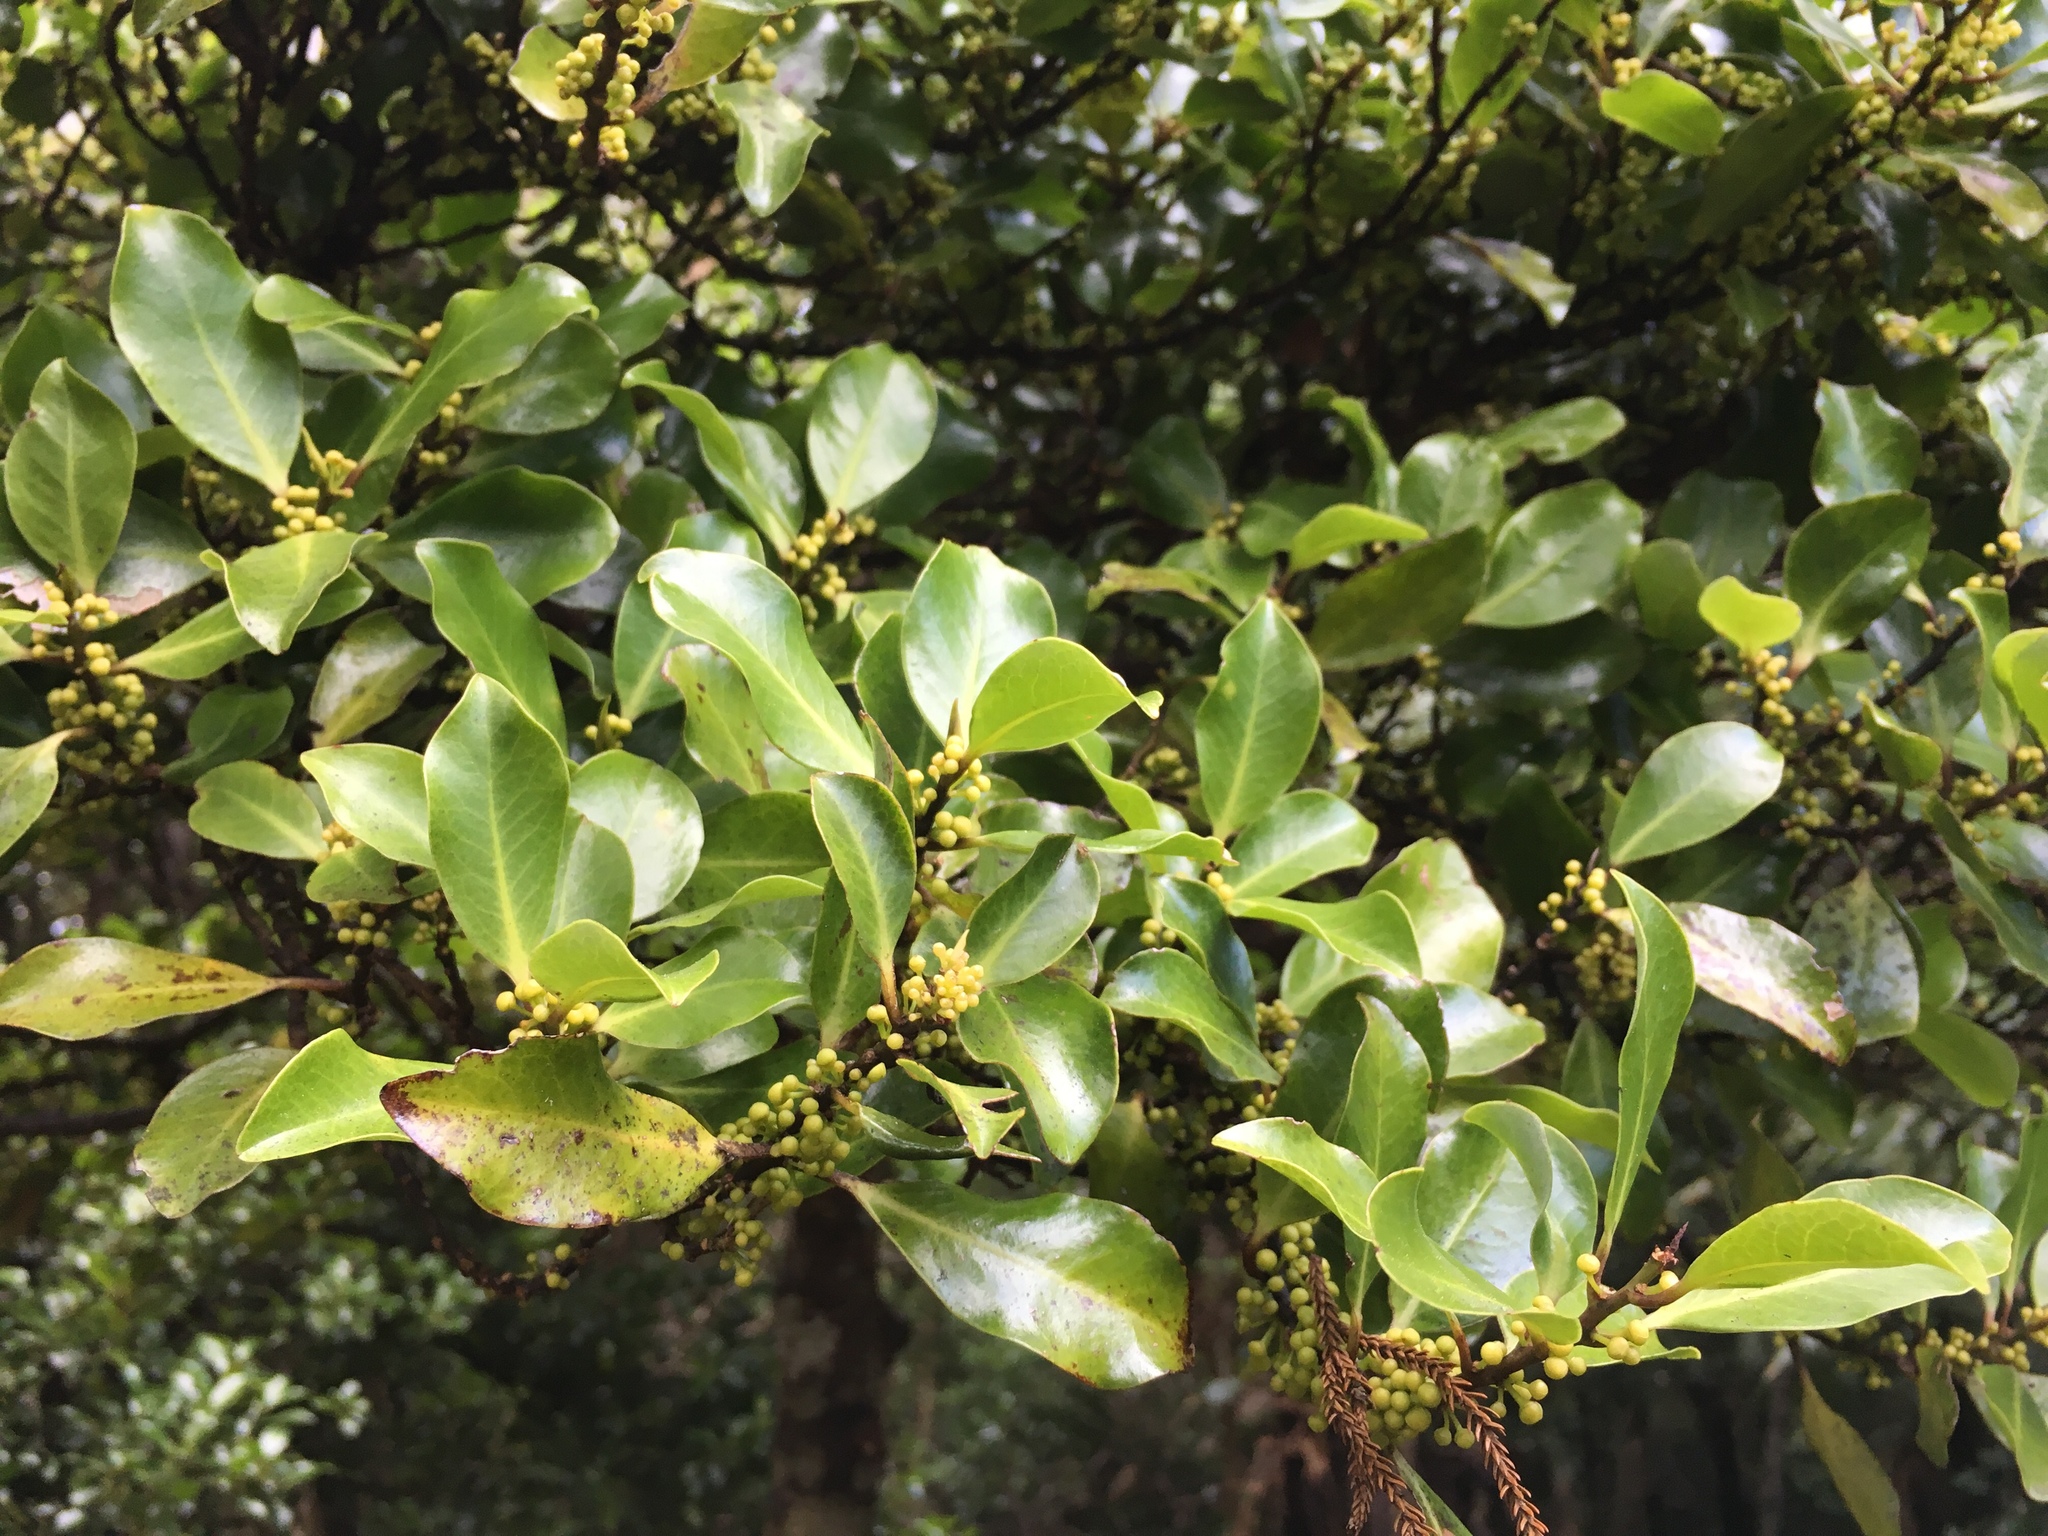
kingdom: Plantae
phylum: Tracheophyta
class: Magnoliopsida
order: Canellales
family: Winteraceae
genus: Pseudowintera
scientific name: Pseudowintera axillaris
